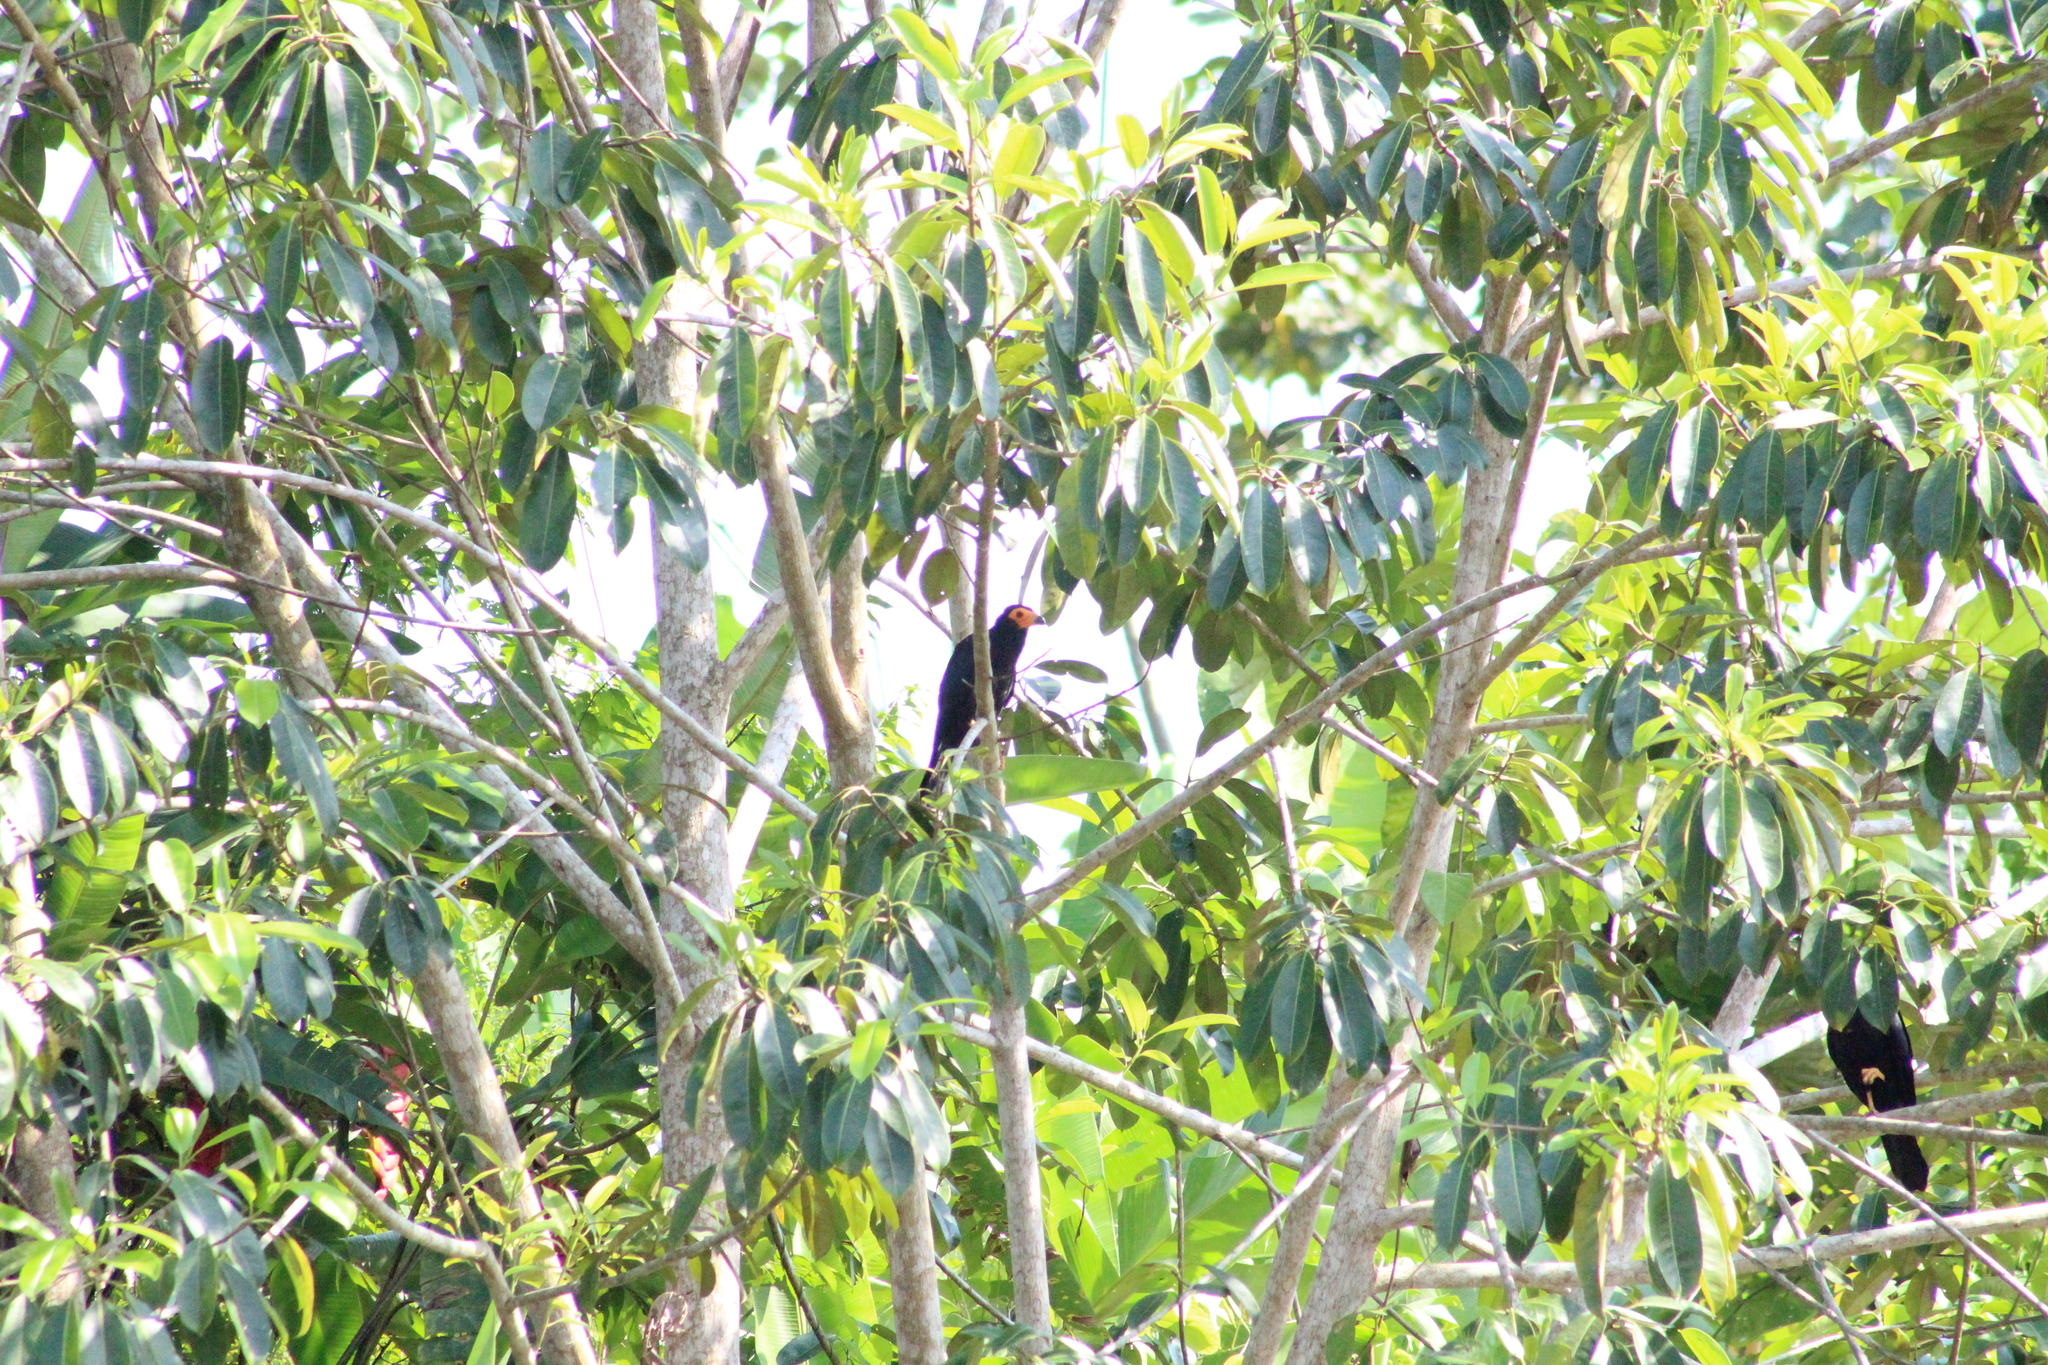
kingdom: Animalia
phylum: Chordata
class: Aves
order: Falconiformes
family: Falconidae
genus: Daptrius
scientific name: Daptrius ater
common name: Black caracara
